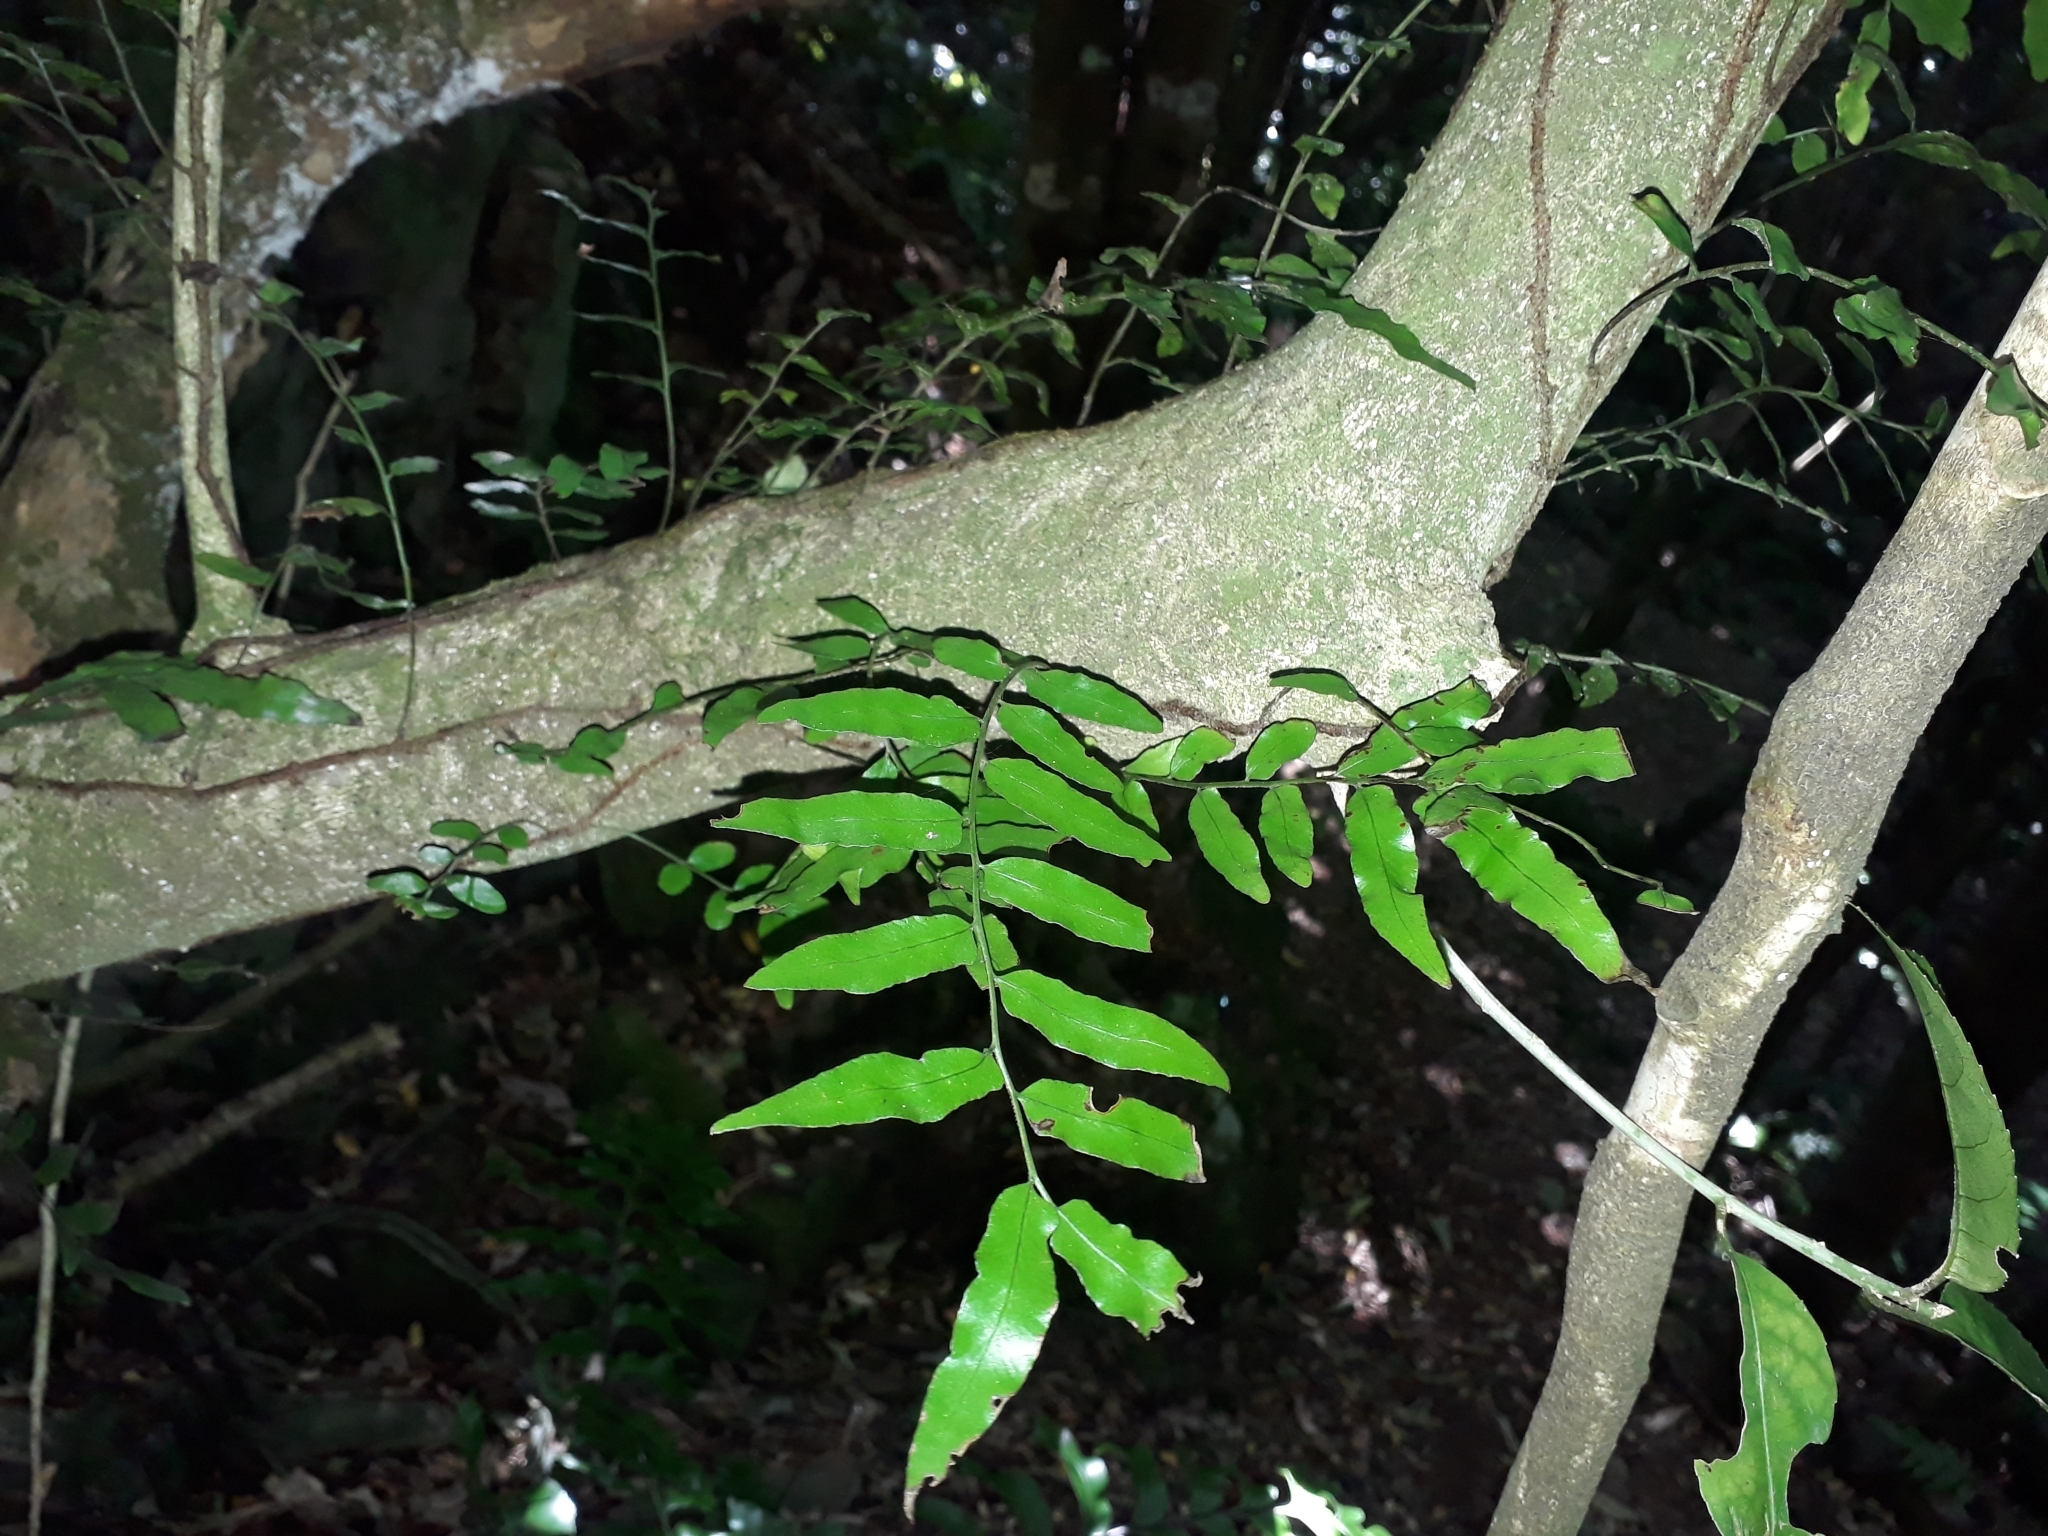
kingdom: Plantae
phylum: Tracheophyta
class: Polypodiopsida
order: Polypodiales
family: Tectariaceae
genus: Arthropteris
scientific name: Arthropteris tenella
